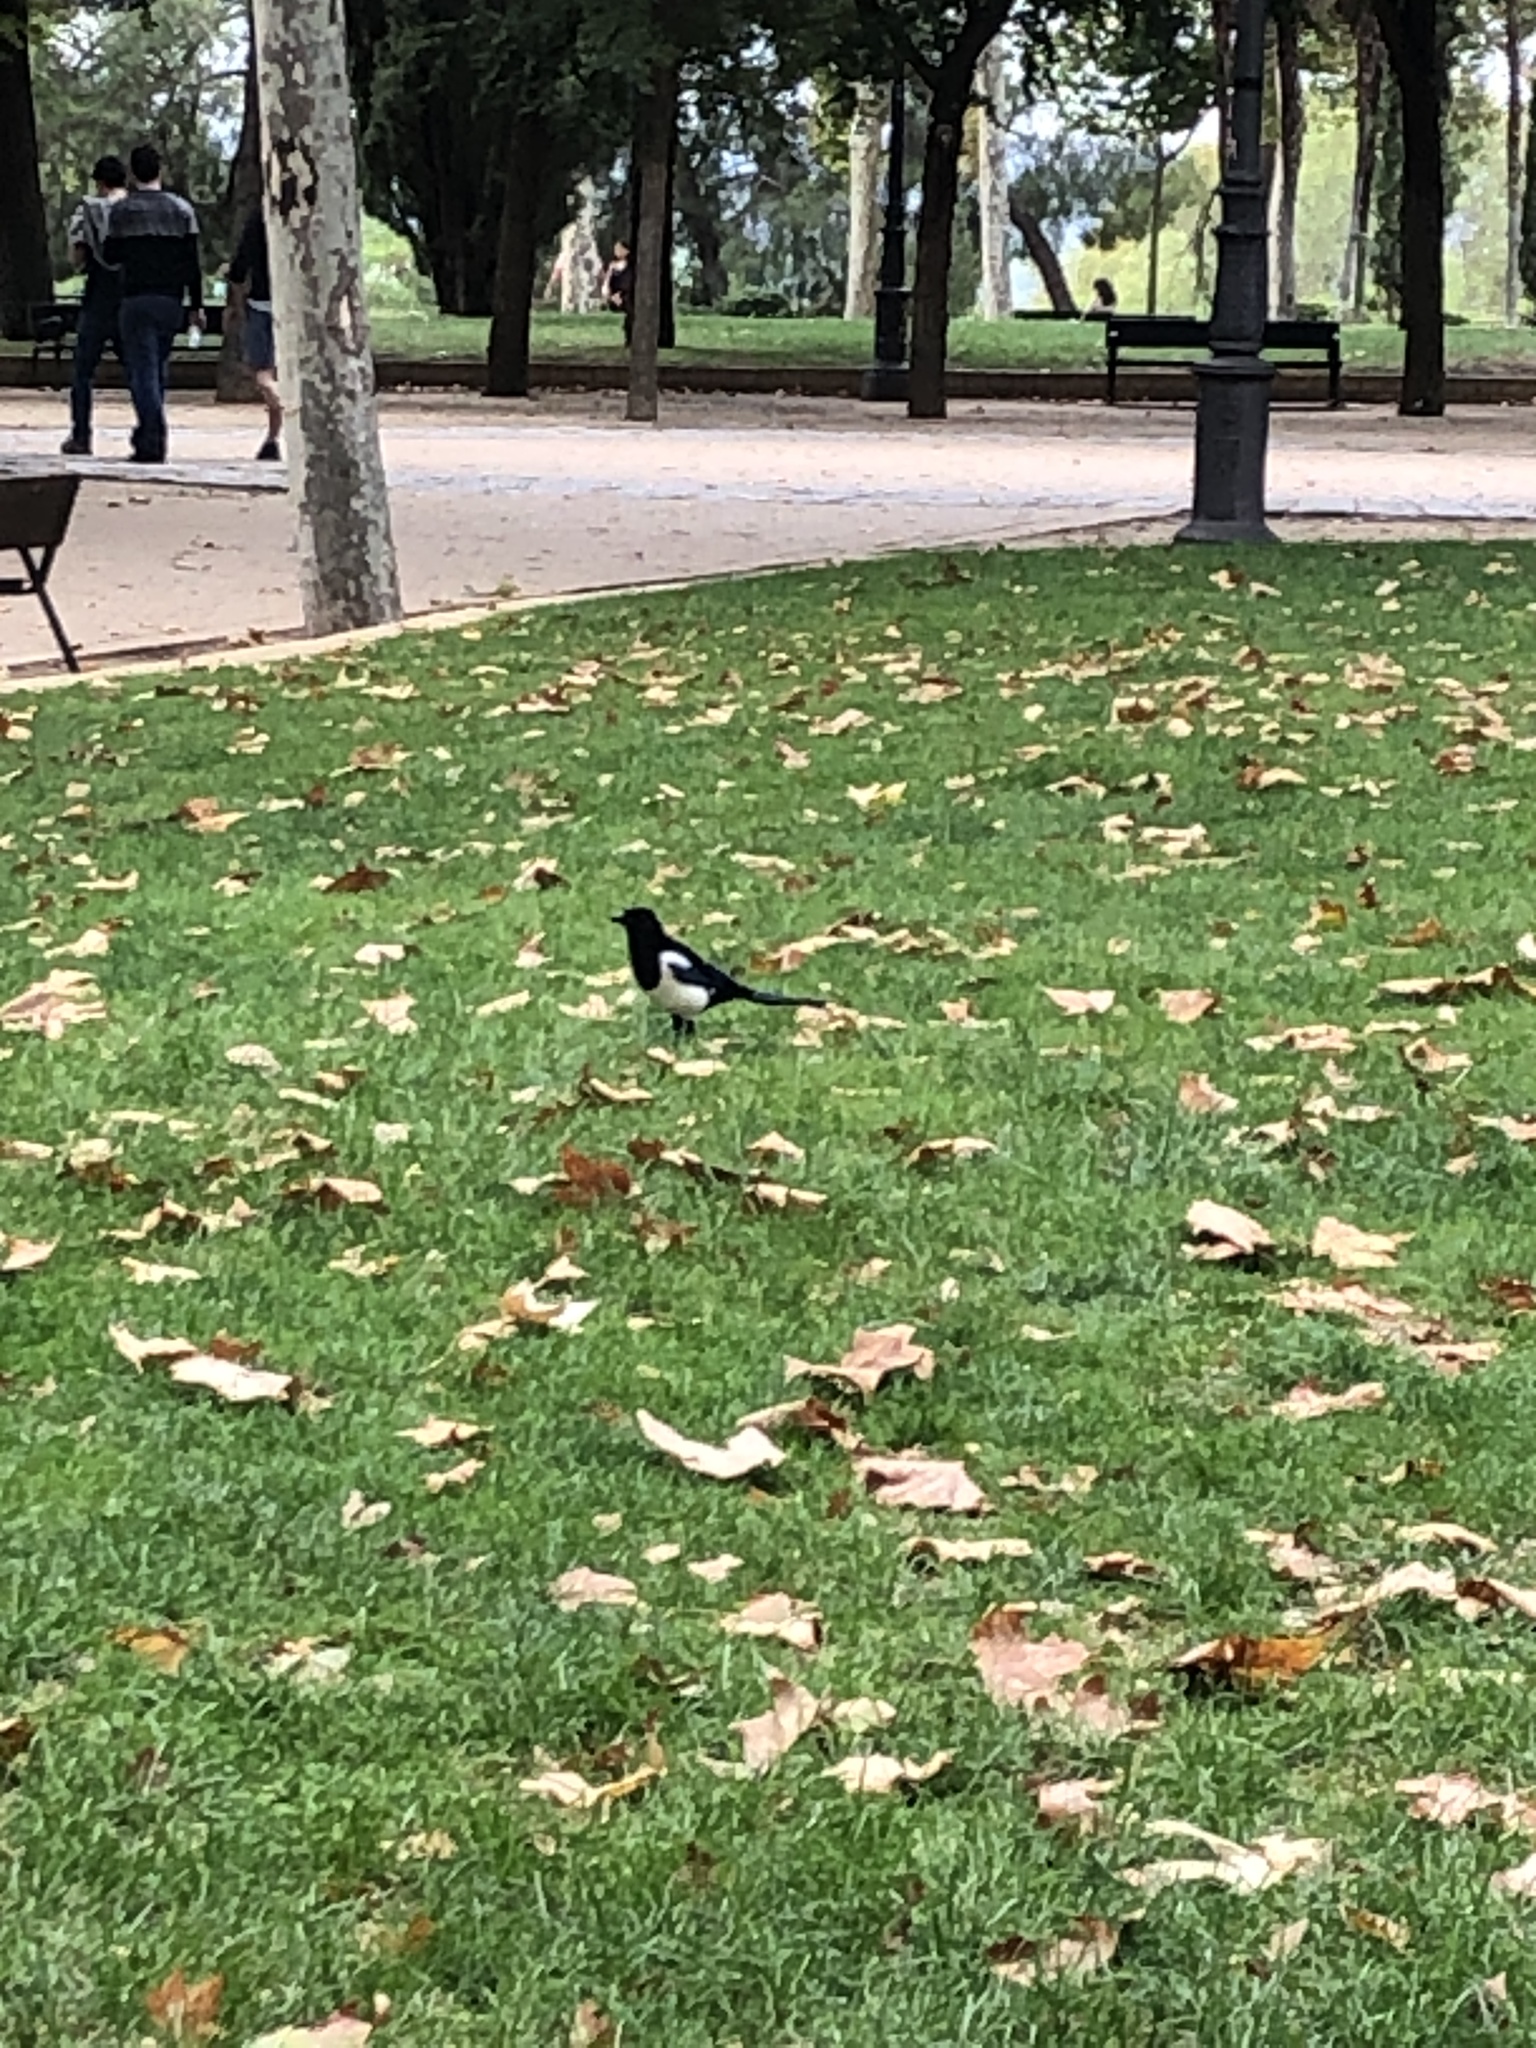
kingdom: Animalia
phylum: Chordata
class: Aves
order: Passeriformes
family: Corvidae
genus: Pica
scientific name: Pica pica
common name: Eurasian magpie
